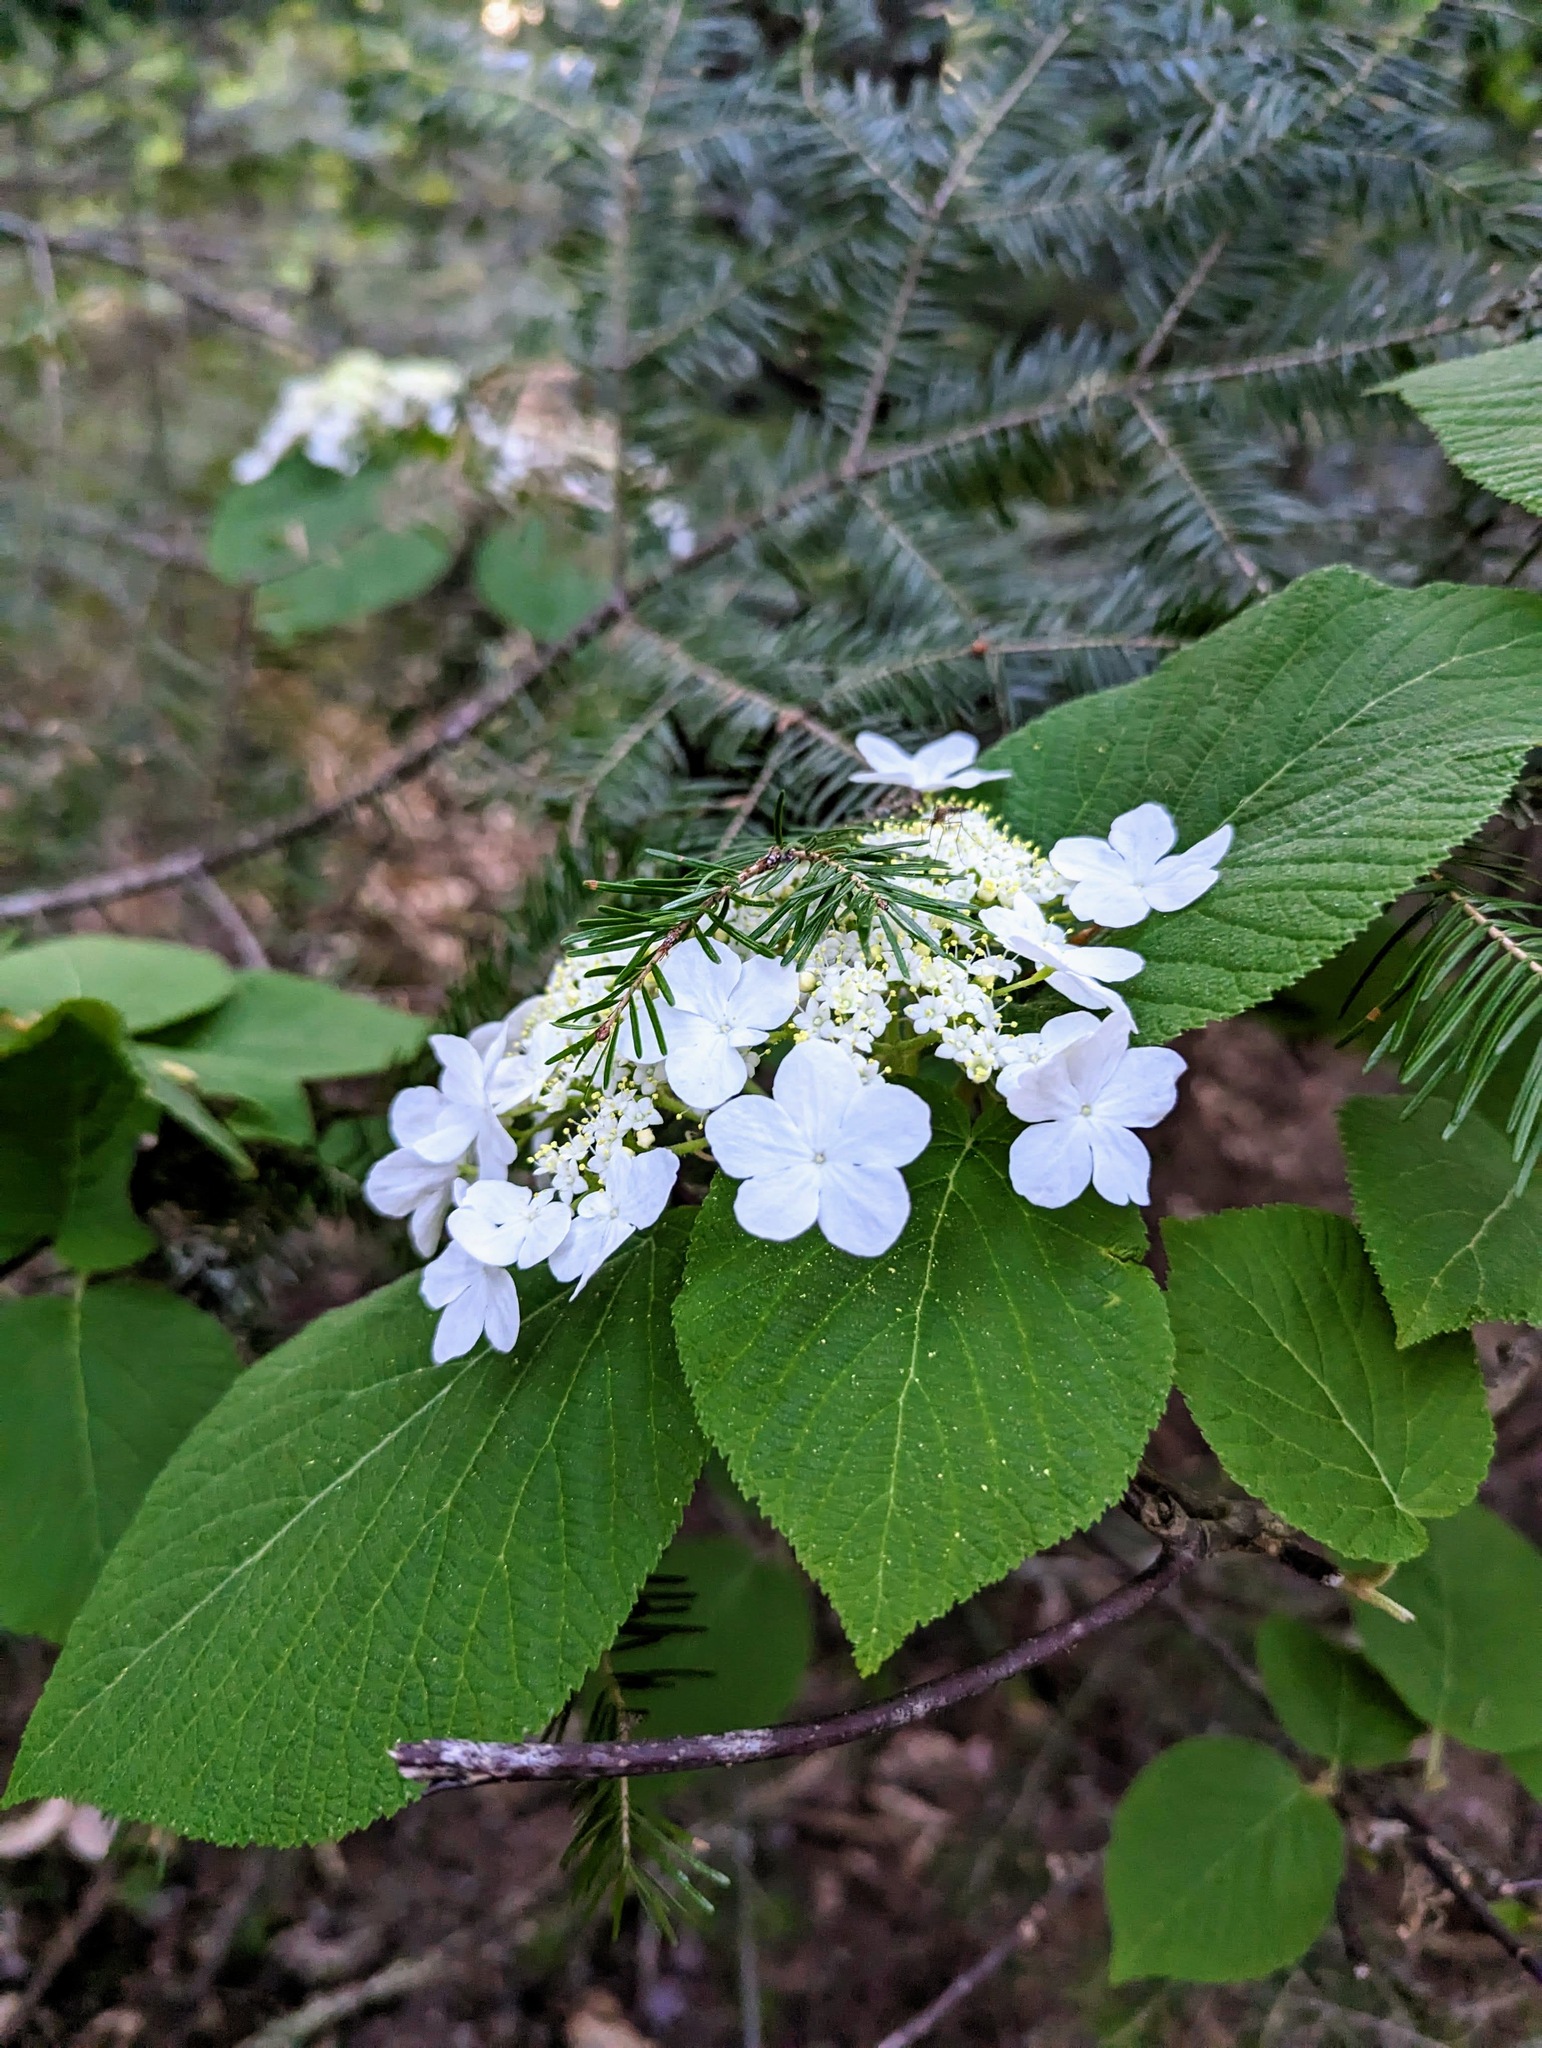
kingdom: Plantae
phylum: Tracheophyta
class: Magnoliopsida
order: Dipsacales
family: Viburnaceae
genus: Viburnum
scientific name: Viburnum lantanoides
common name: Hobblebush
